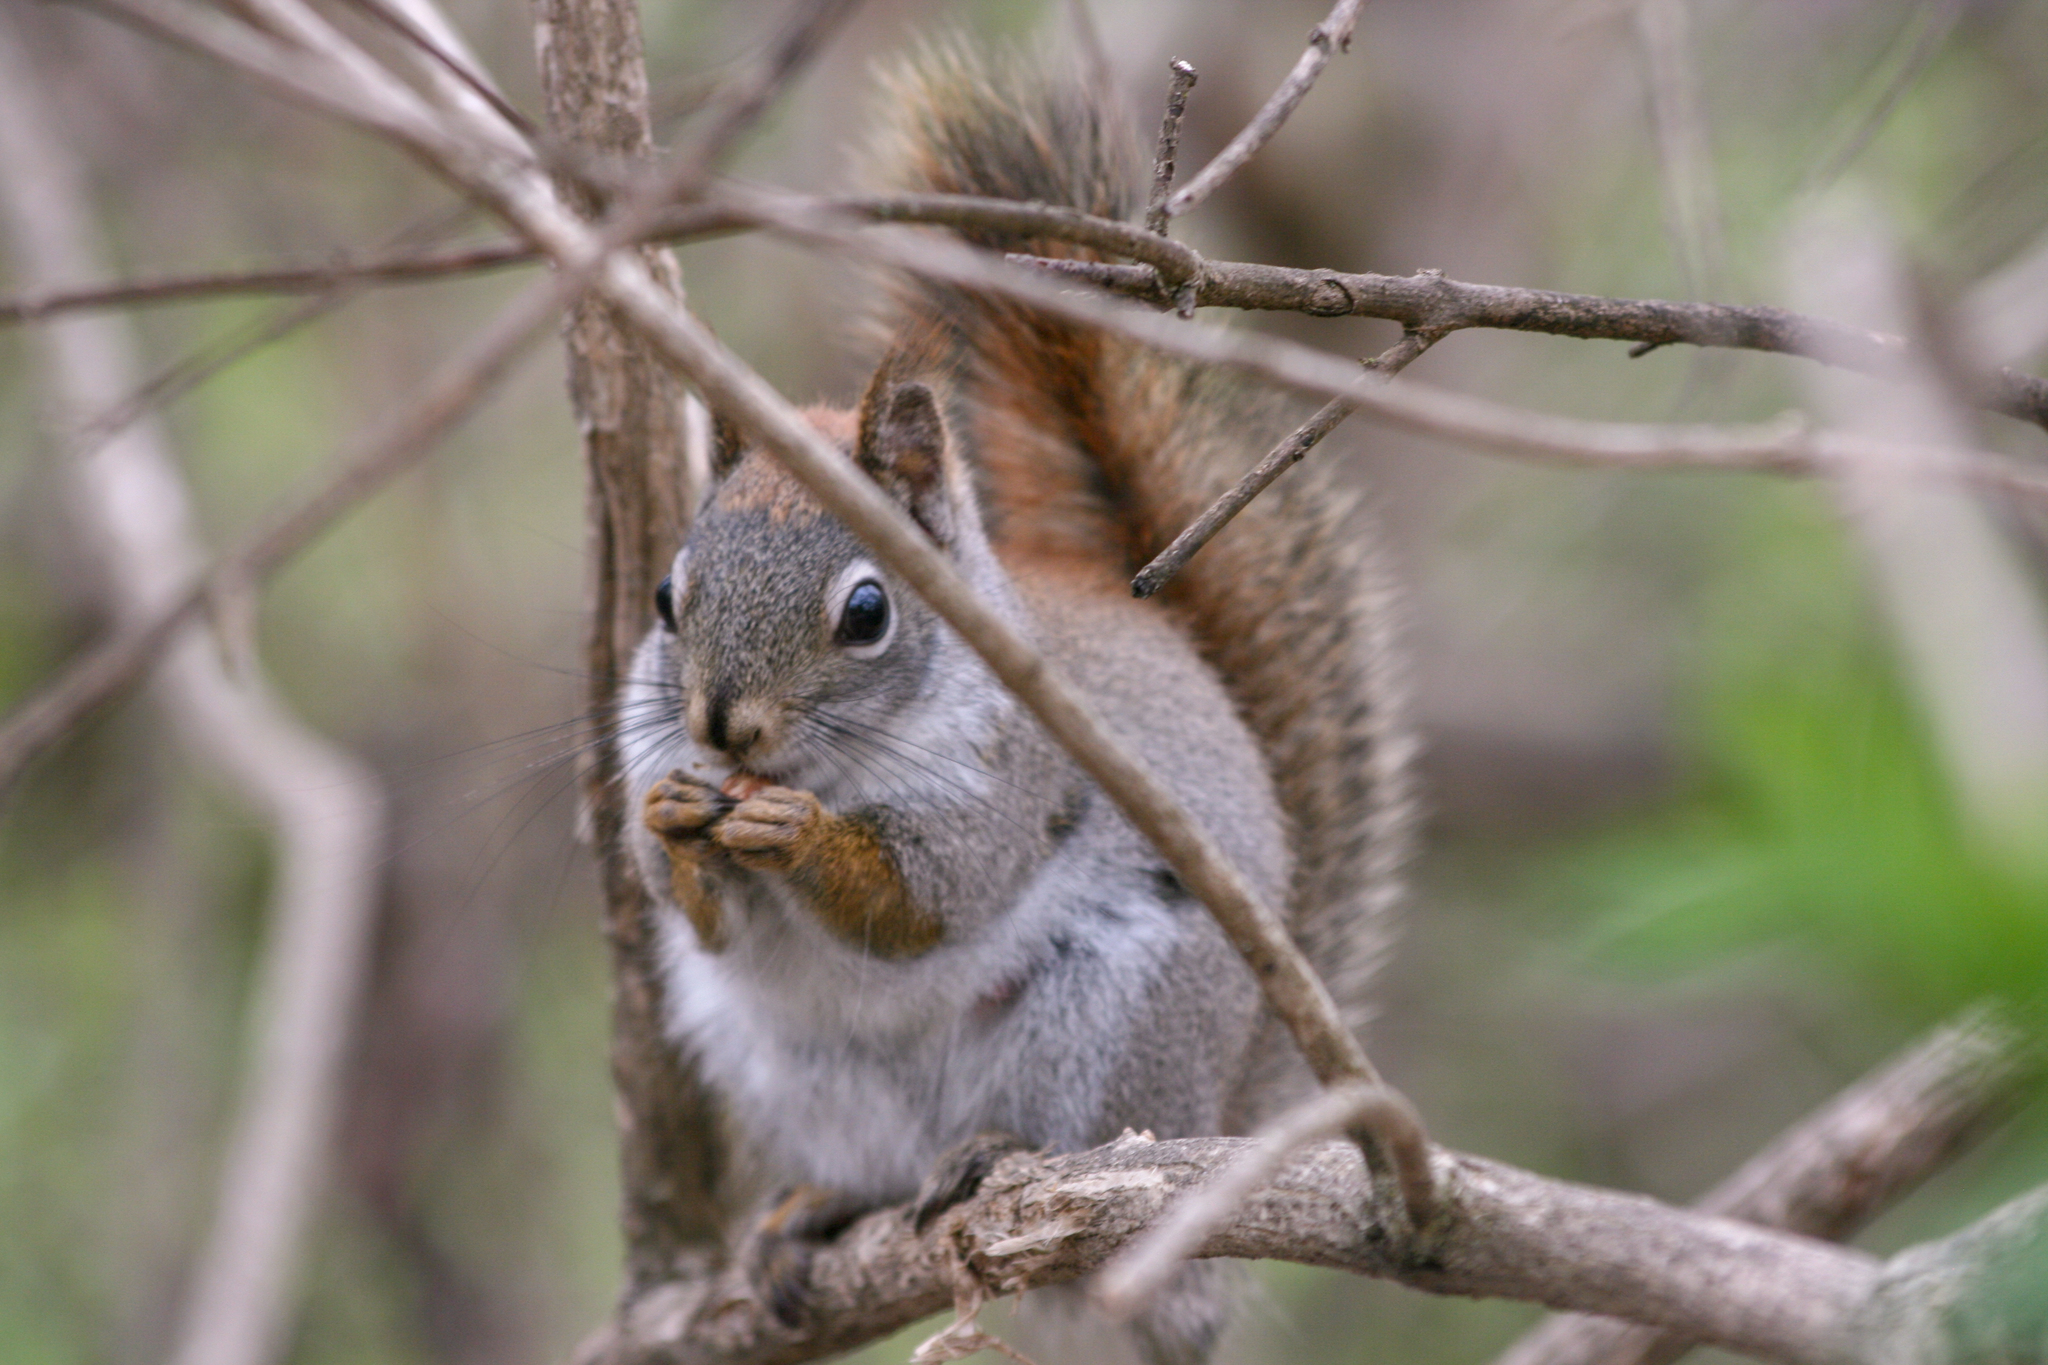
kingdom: Animalia
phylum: Chordata
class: Mammalia
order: Rodentia
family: Sciuridae
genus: Tamiasciurus
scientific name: Tamiasciurus hudsonicus
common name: Red squirrel
